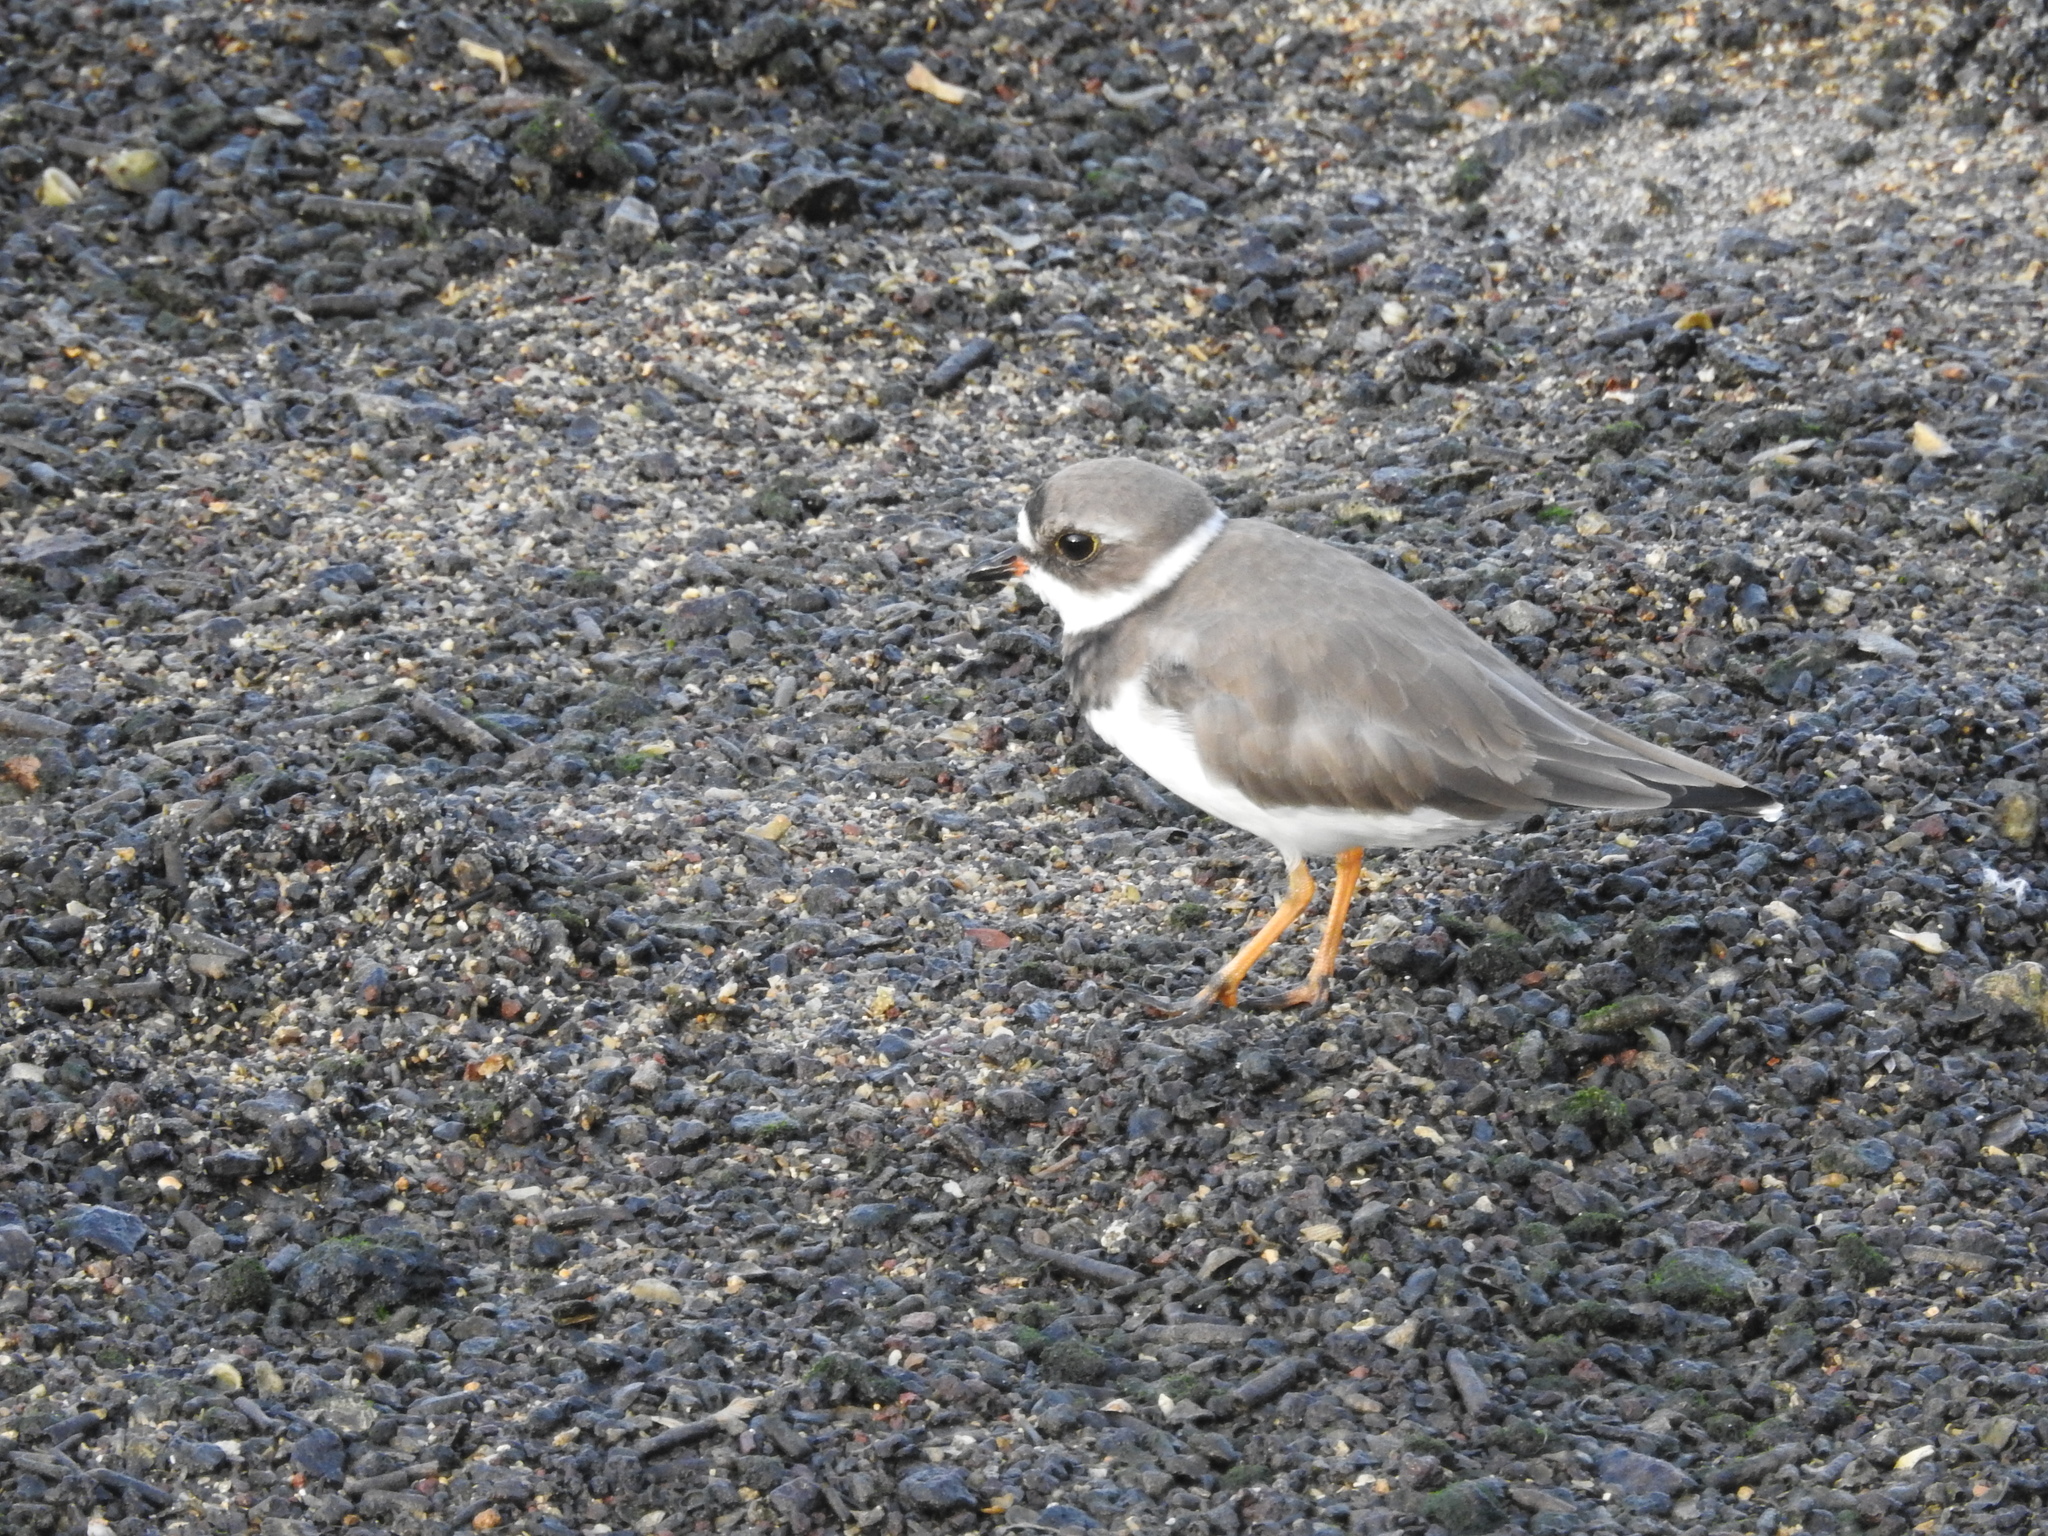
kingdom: Animalia
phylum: Chordata
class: Aves
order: Charadriiformes
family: Charadriidae
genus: Charadrius
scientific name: Charadrius semipalmatus
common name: Semipalmated plover
